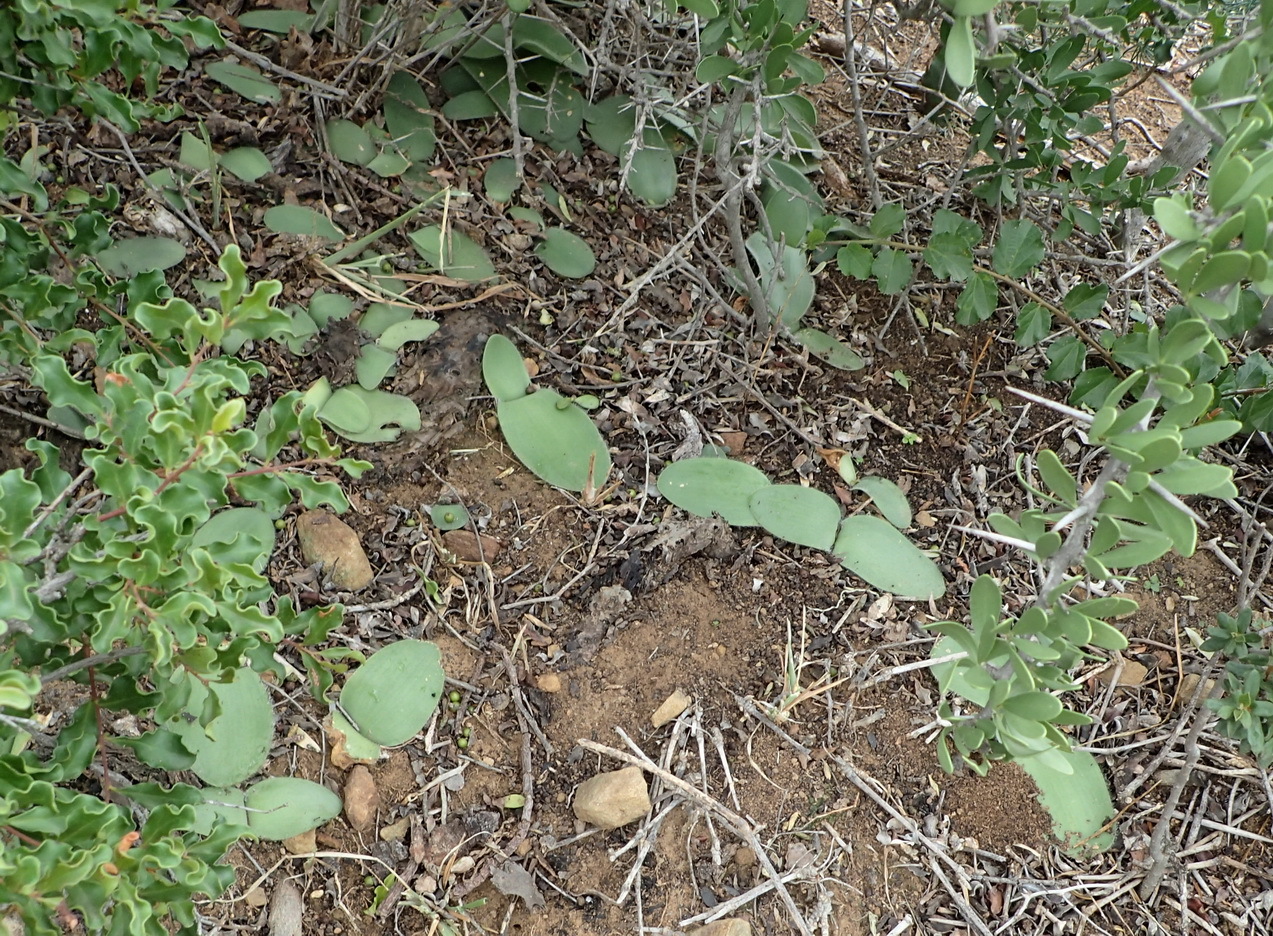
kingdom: Plantae
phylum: Tracheophyta
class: Liliopsida
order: Asparagales
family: Amaryllidaceae
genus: Haemanthus
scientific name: Haemanthus albiflos
